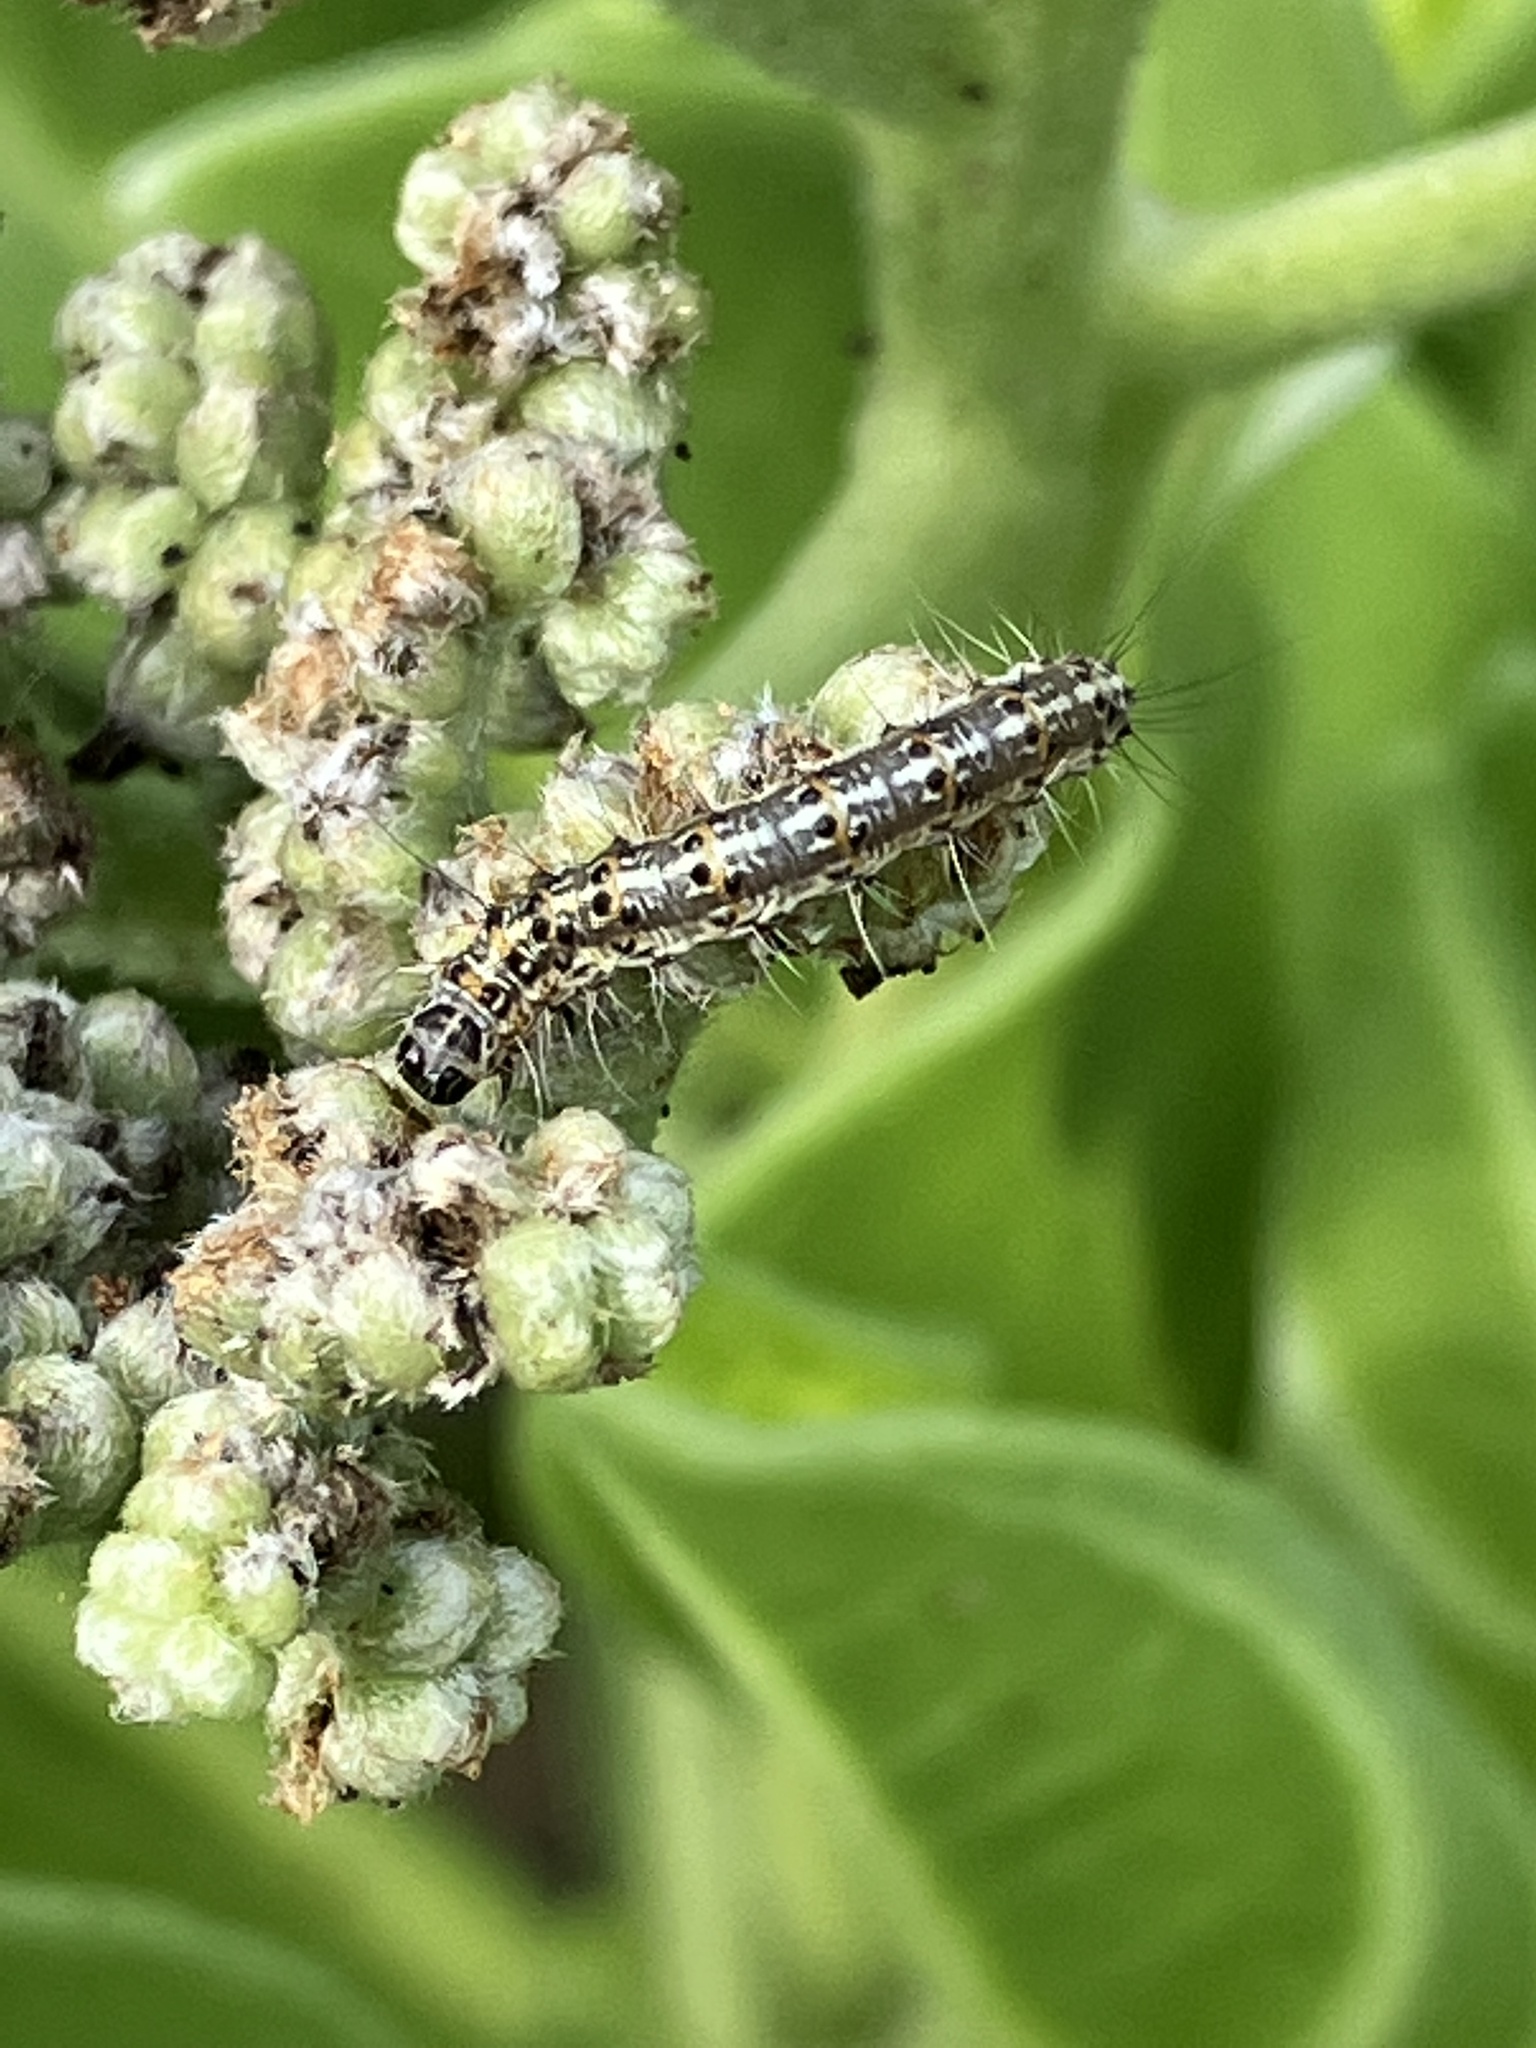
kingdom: Animalia
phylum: Arthropoda
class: Insecta
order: Lepidoptera
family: Erebidae
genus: Utetheisa
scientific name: Utetheisa pulchelloides
